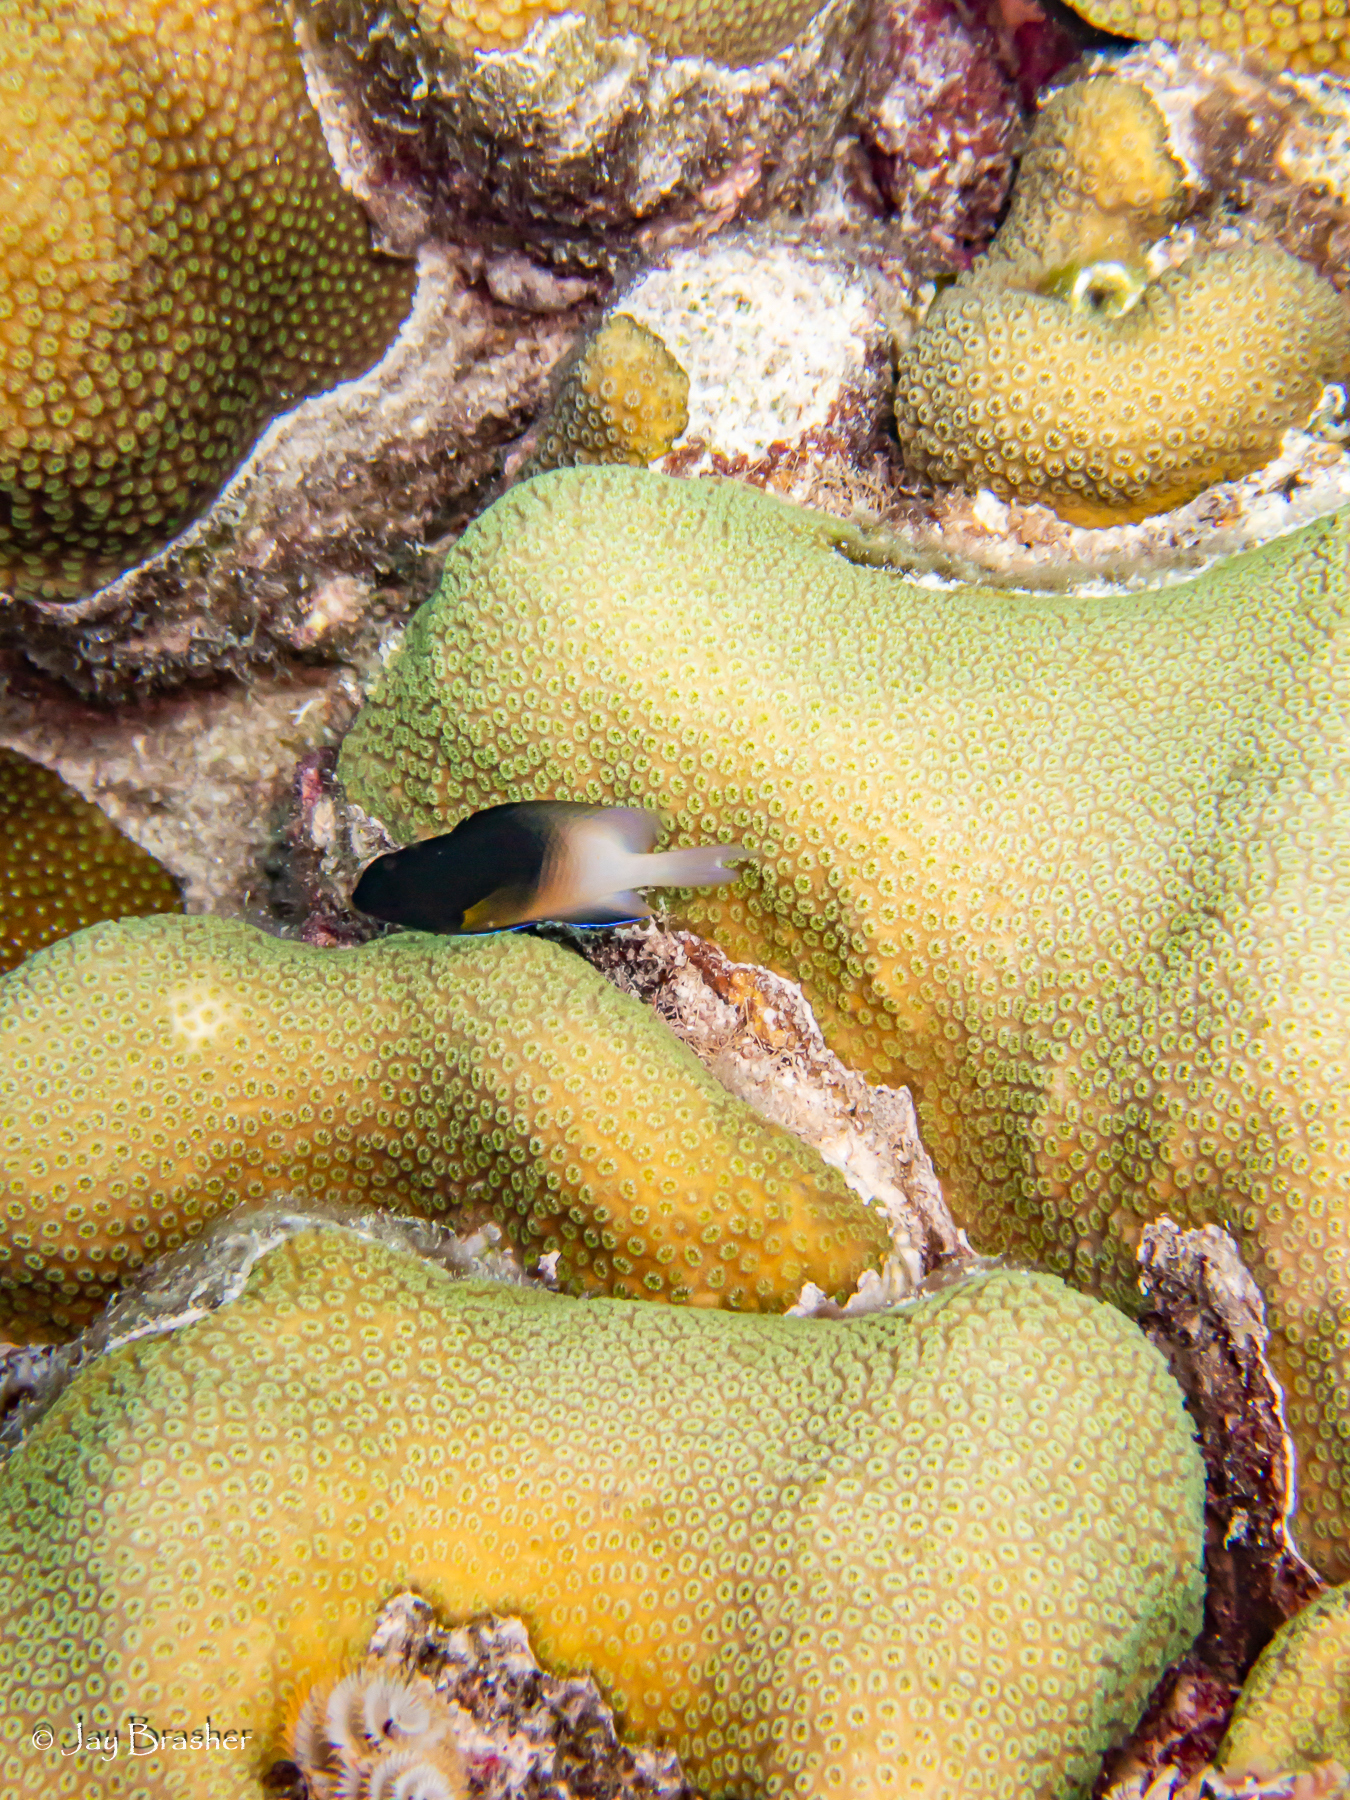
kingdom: Animalia
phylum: Chordata
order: Perciformes
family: Pomacentridae
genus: Stegastes
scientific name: Stegastes partitus
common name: Bicolor damselfish
